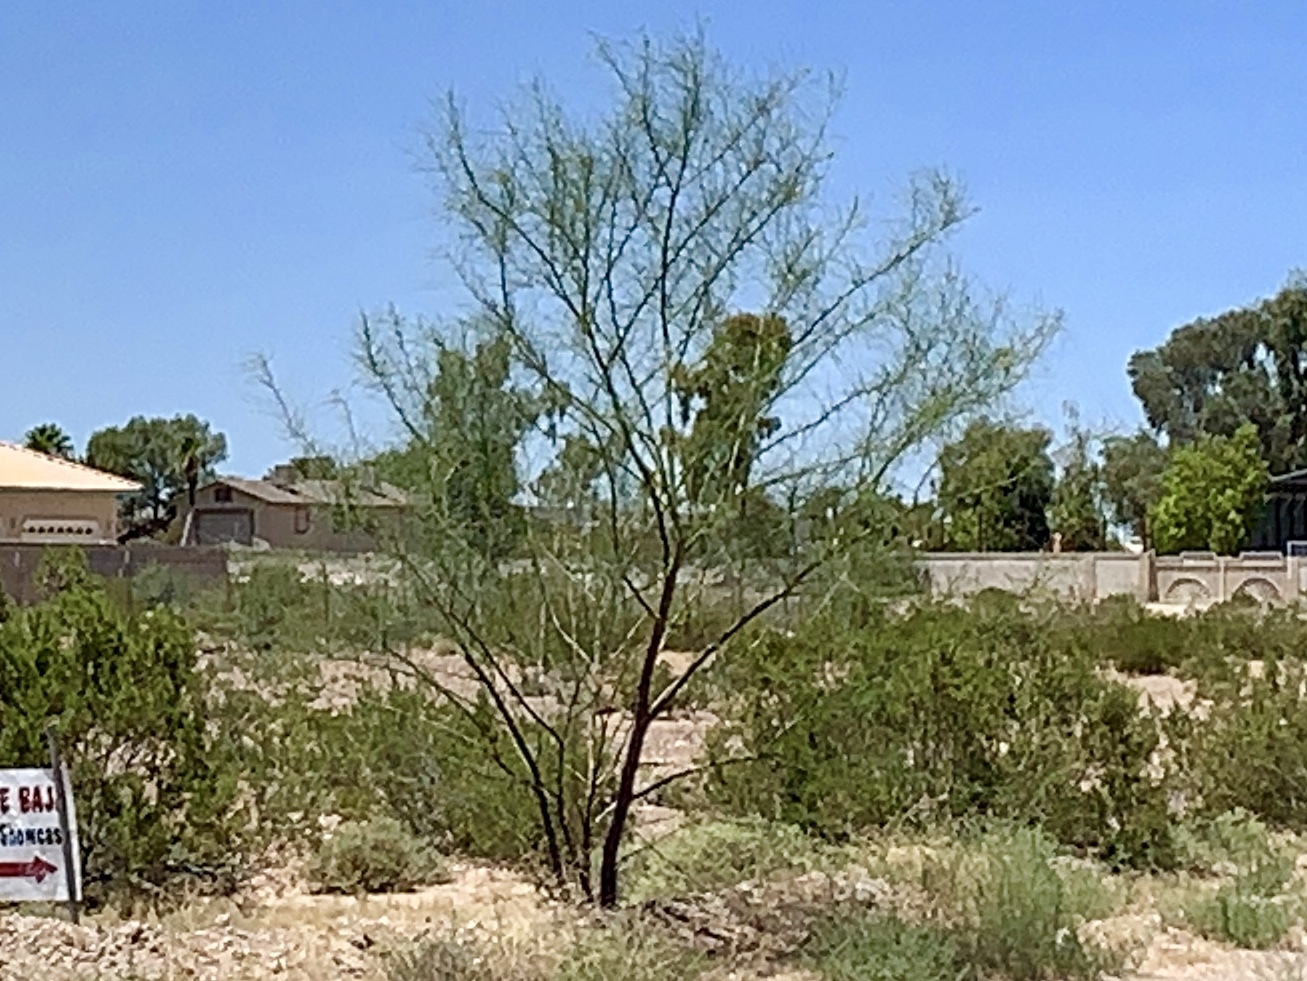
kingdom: Plantae
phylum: Tracheophyta
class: Magnoliopsida
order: Fabales
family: Fabaceae
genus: Parkinsonia
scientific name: Parkinsonia aculeata
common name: Jerusalem thorn
